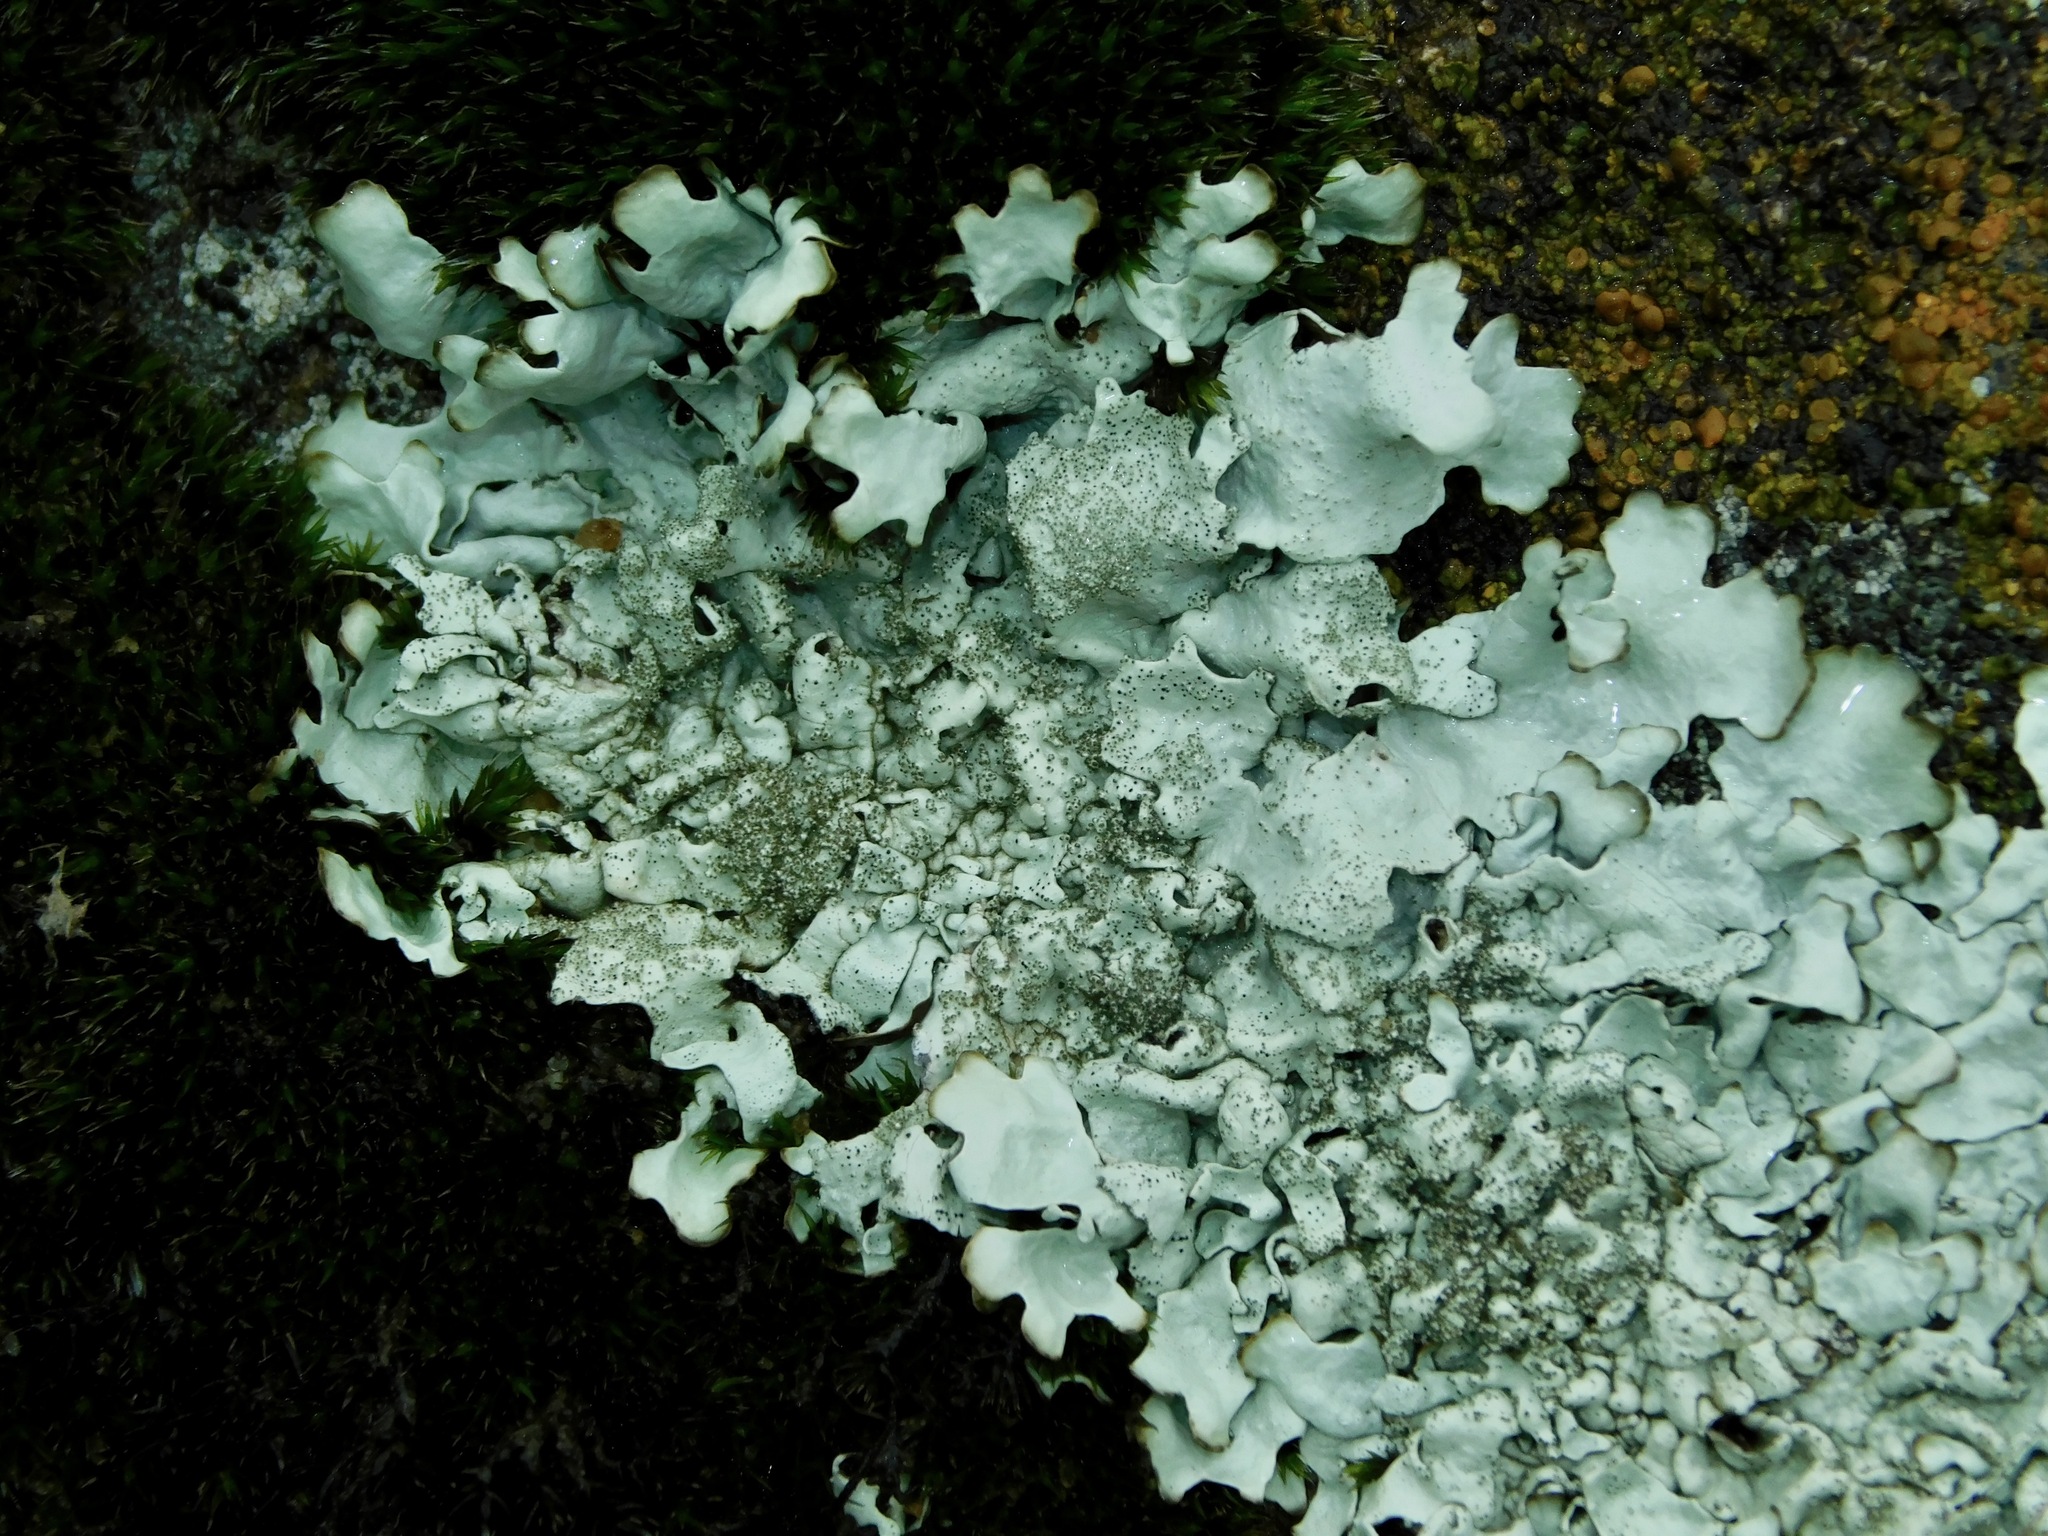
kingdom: Fungi
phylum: Ascomycota
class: Lecanoromycetes
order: Lecanorales
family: Parmeliaceae
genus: Xanthoparmelia
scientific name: Xanthoparmelia conspersa
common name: Peppered rock shield
